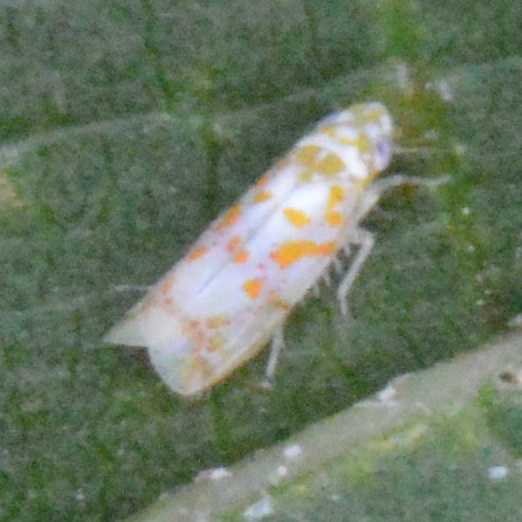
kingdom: Animalia
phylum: Arthropoda
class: Insecta
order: Hemiptera
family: Cicadellidae
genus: Dikrella
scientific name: Dikrella maculata
